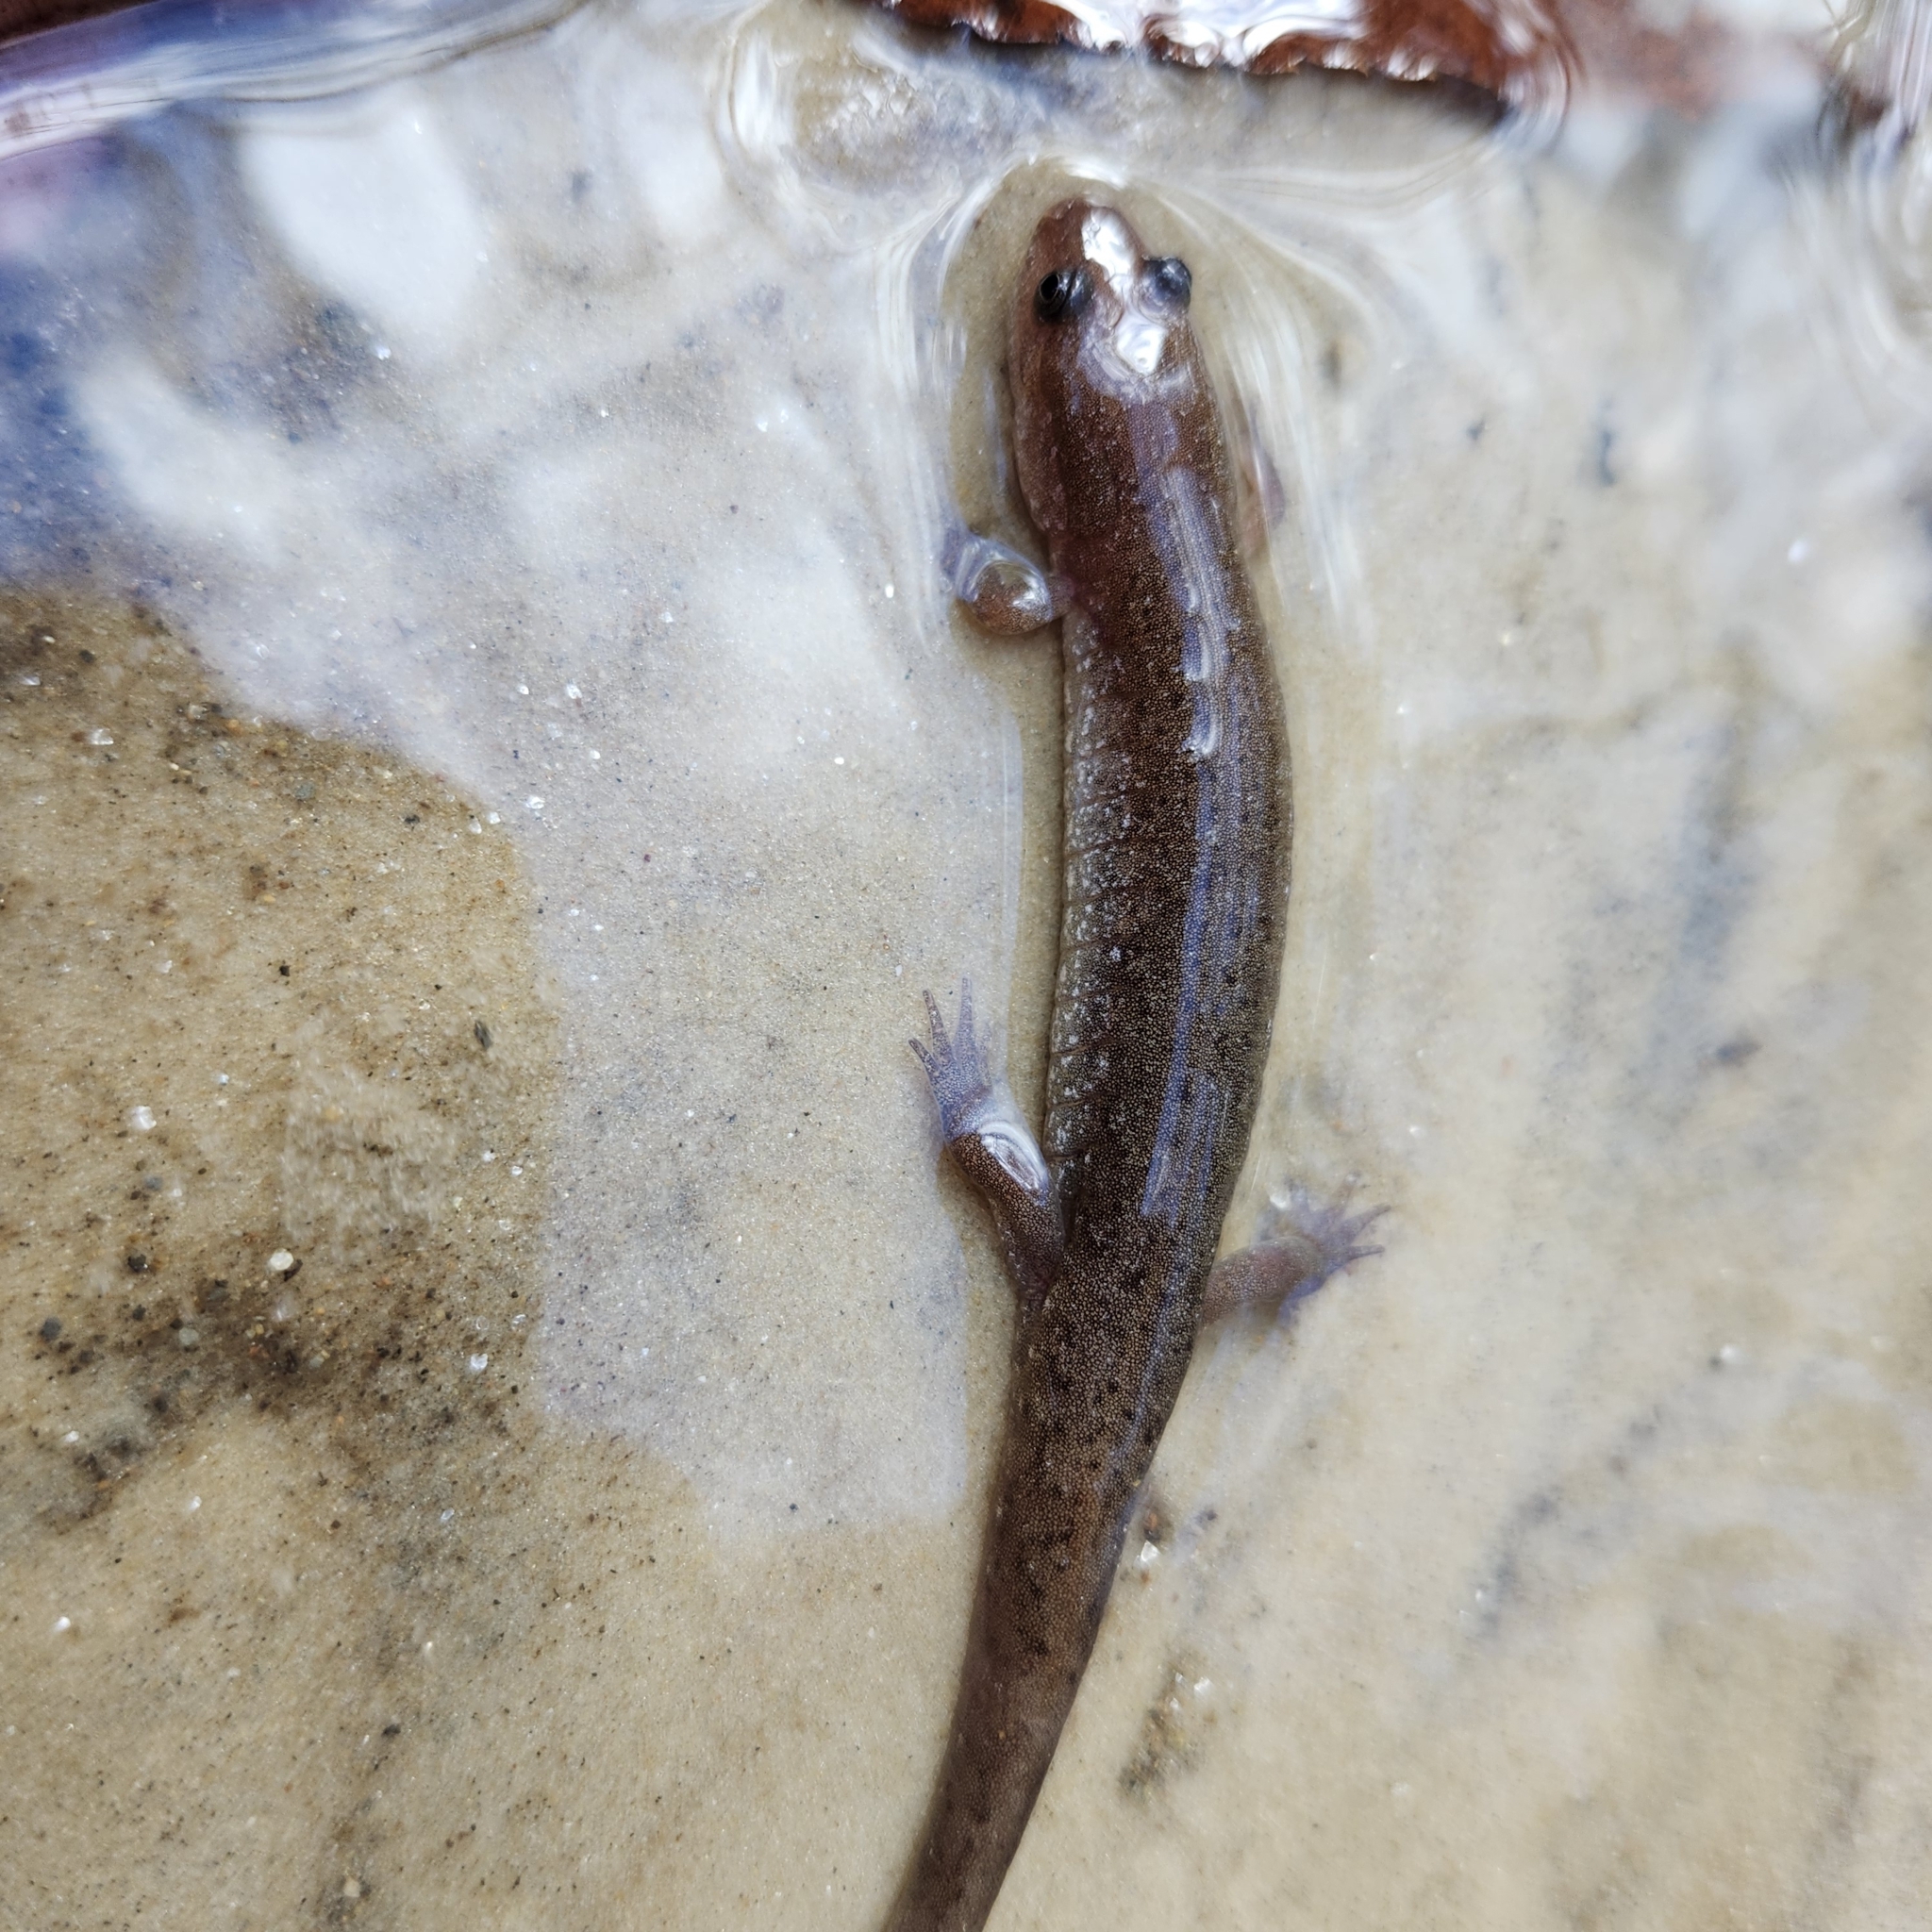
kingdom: Animalia
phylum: Chordata
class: Amphibia
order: Caudata
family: Plethodontidae
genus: Desmognathus
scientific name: Desmognathus
